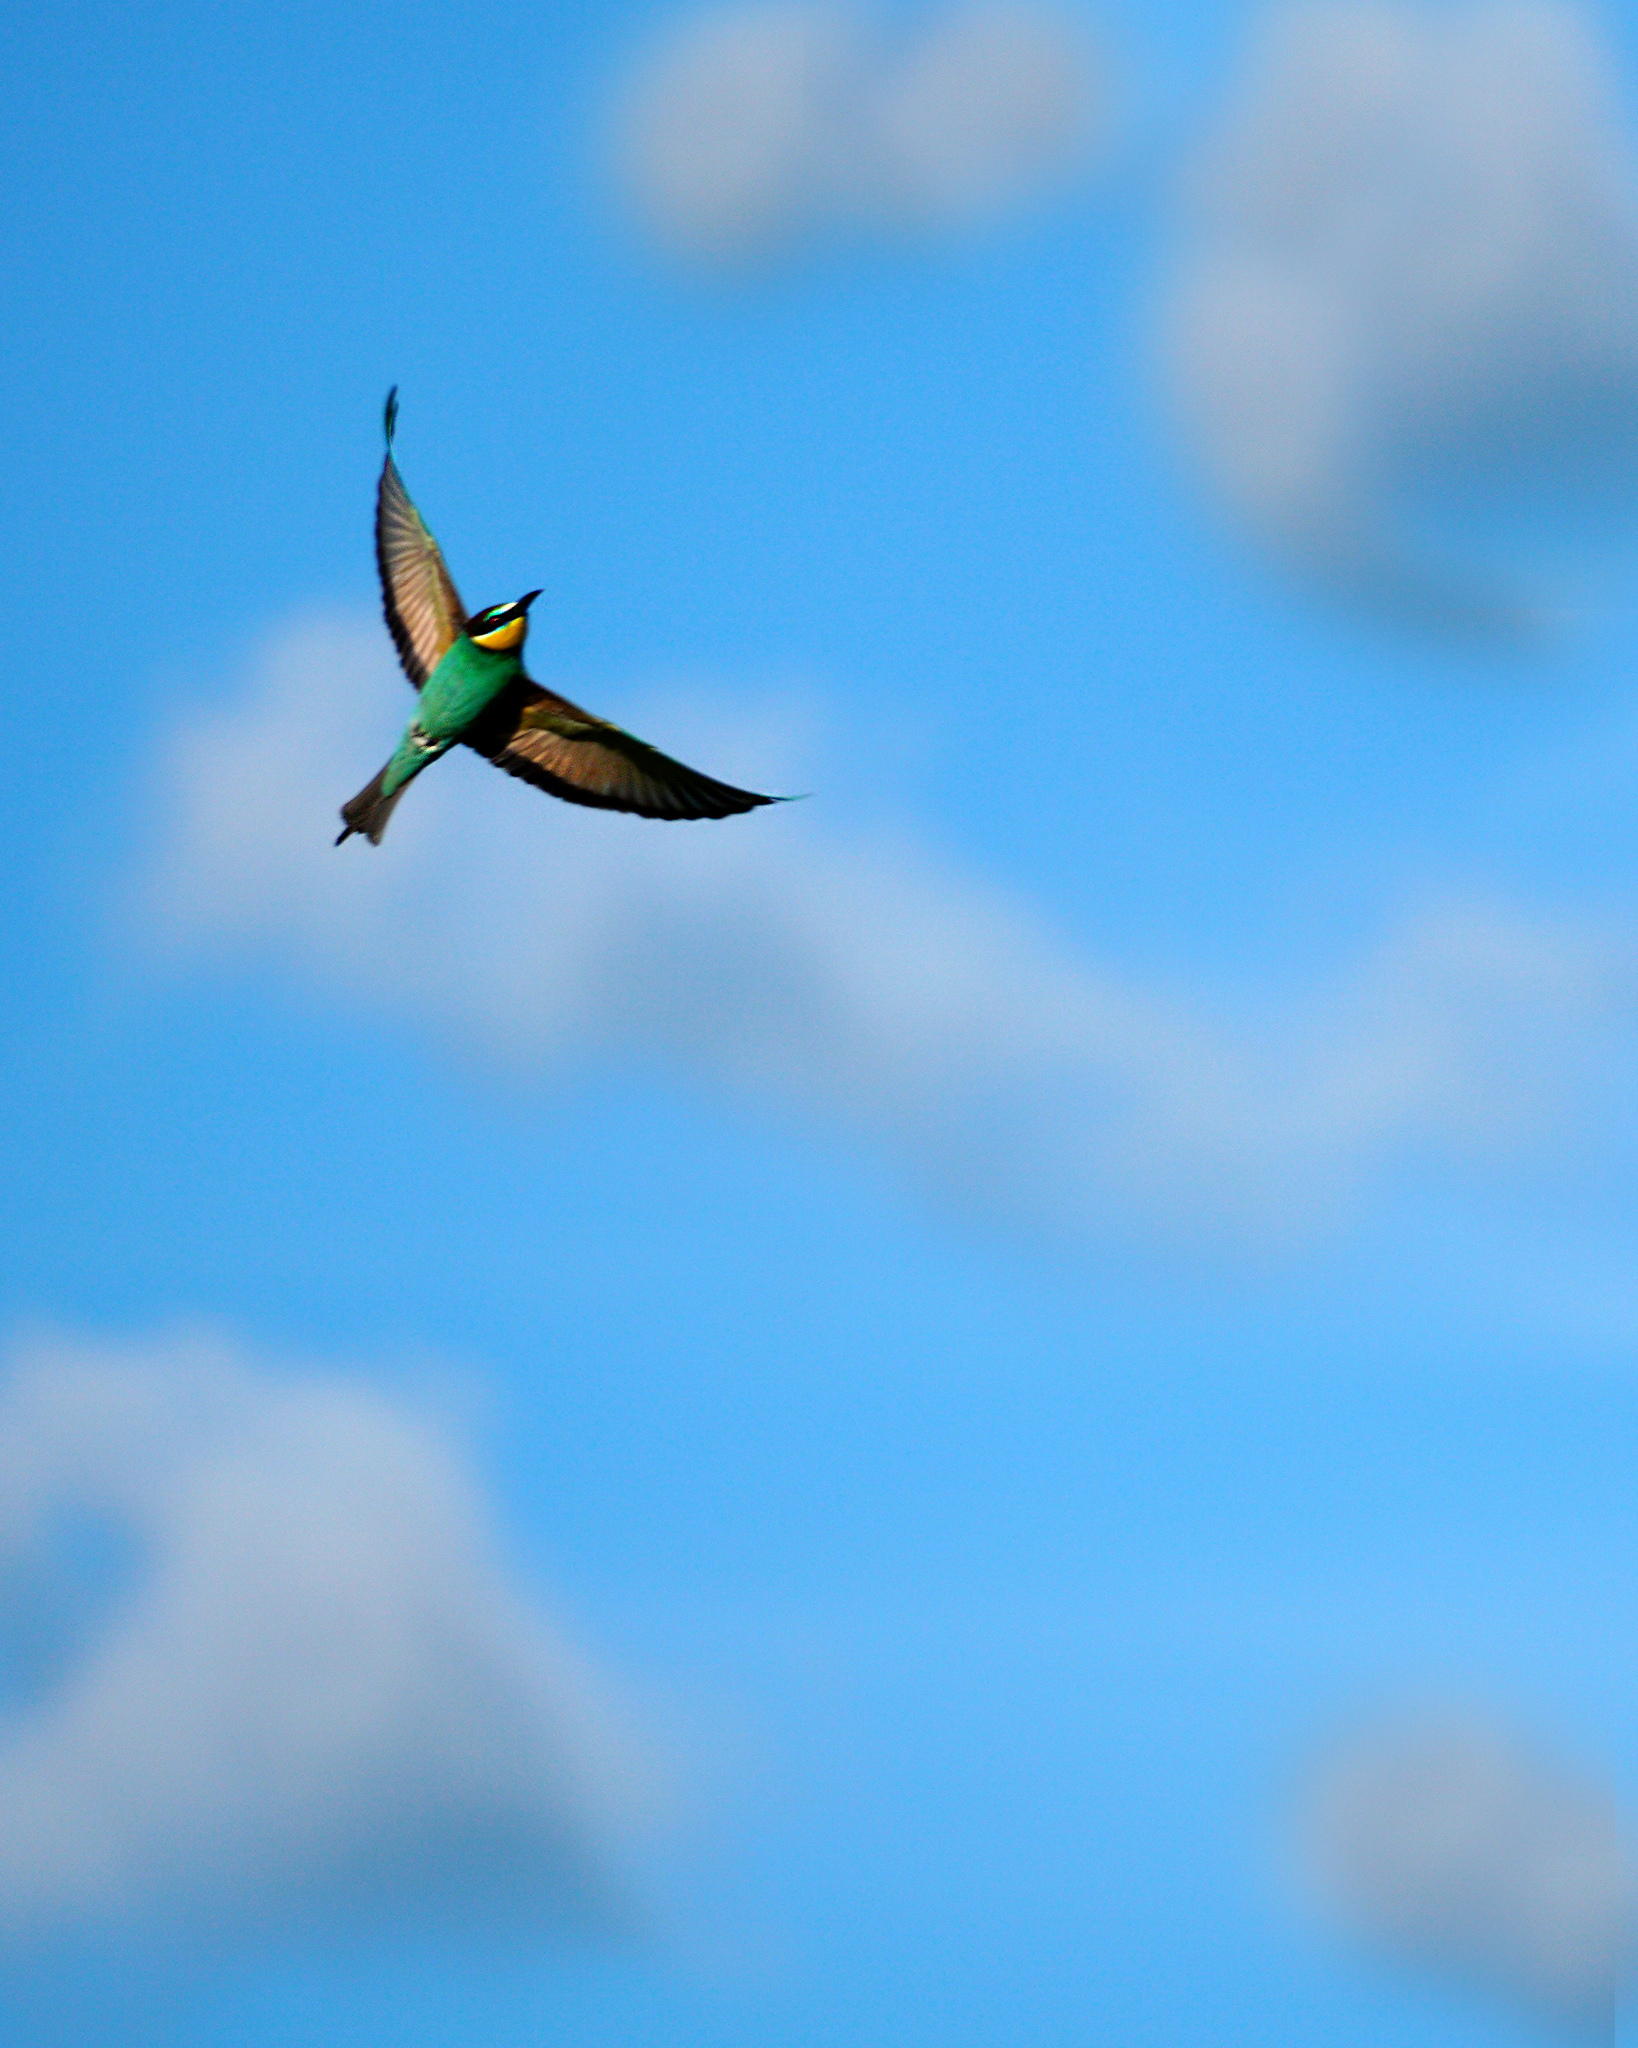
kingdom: Animalia
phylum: Chordata
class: Aves
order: Coraciiformes
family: Meropidae
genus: Merops
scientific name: Merops apiaster
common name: European bee-eater
